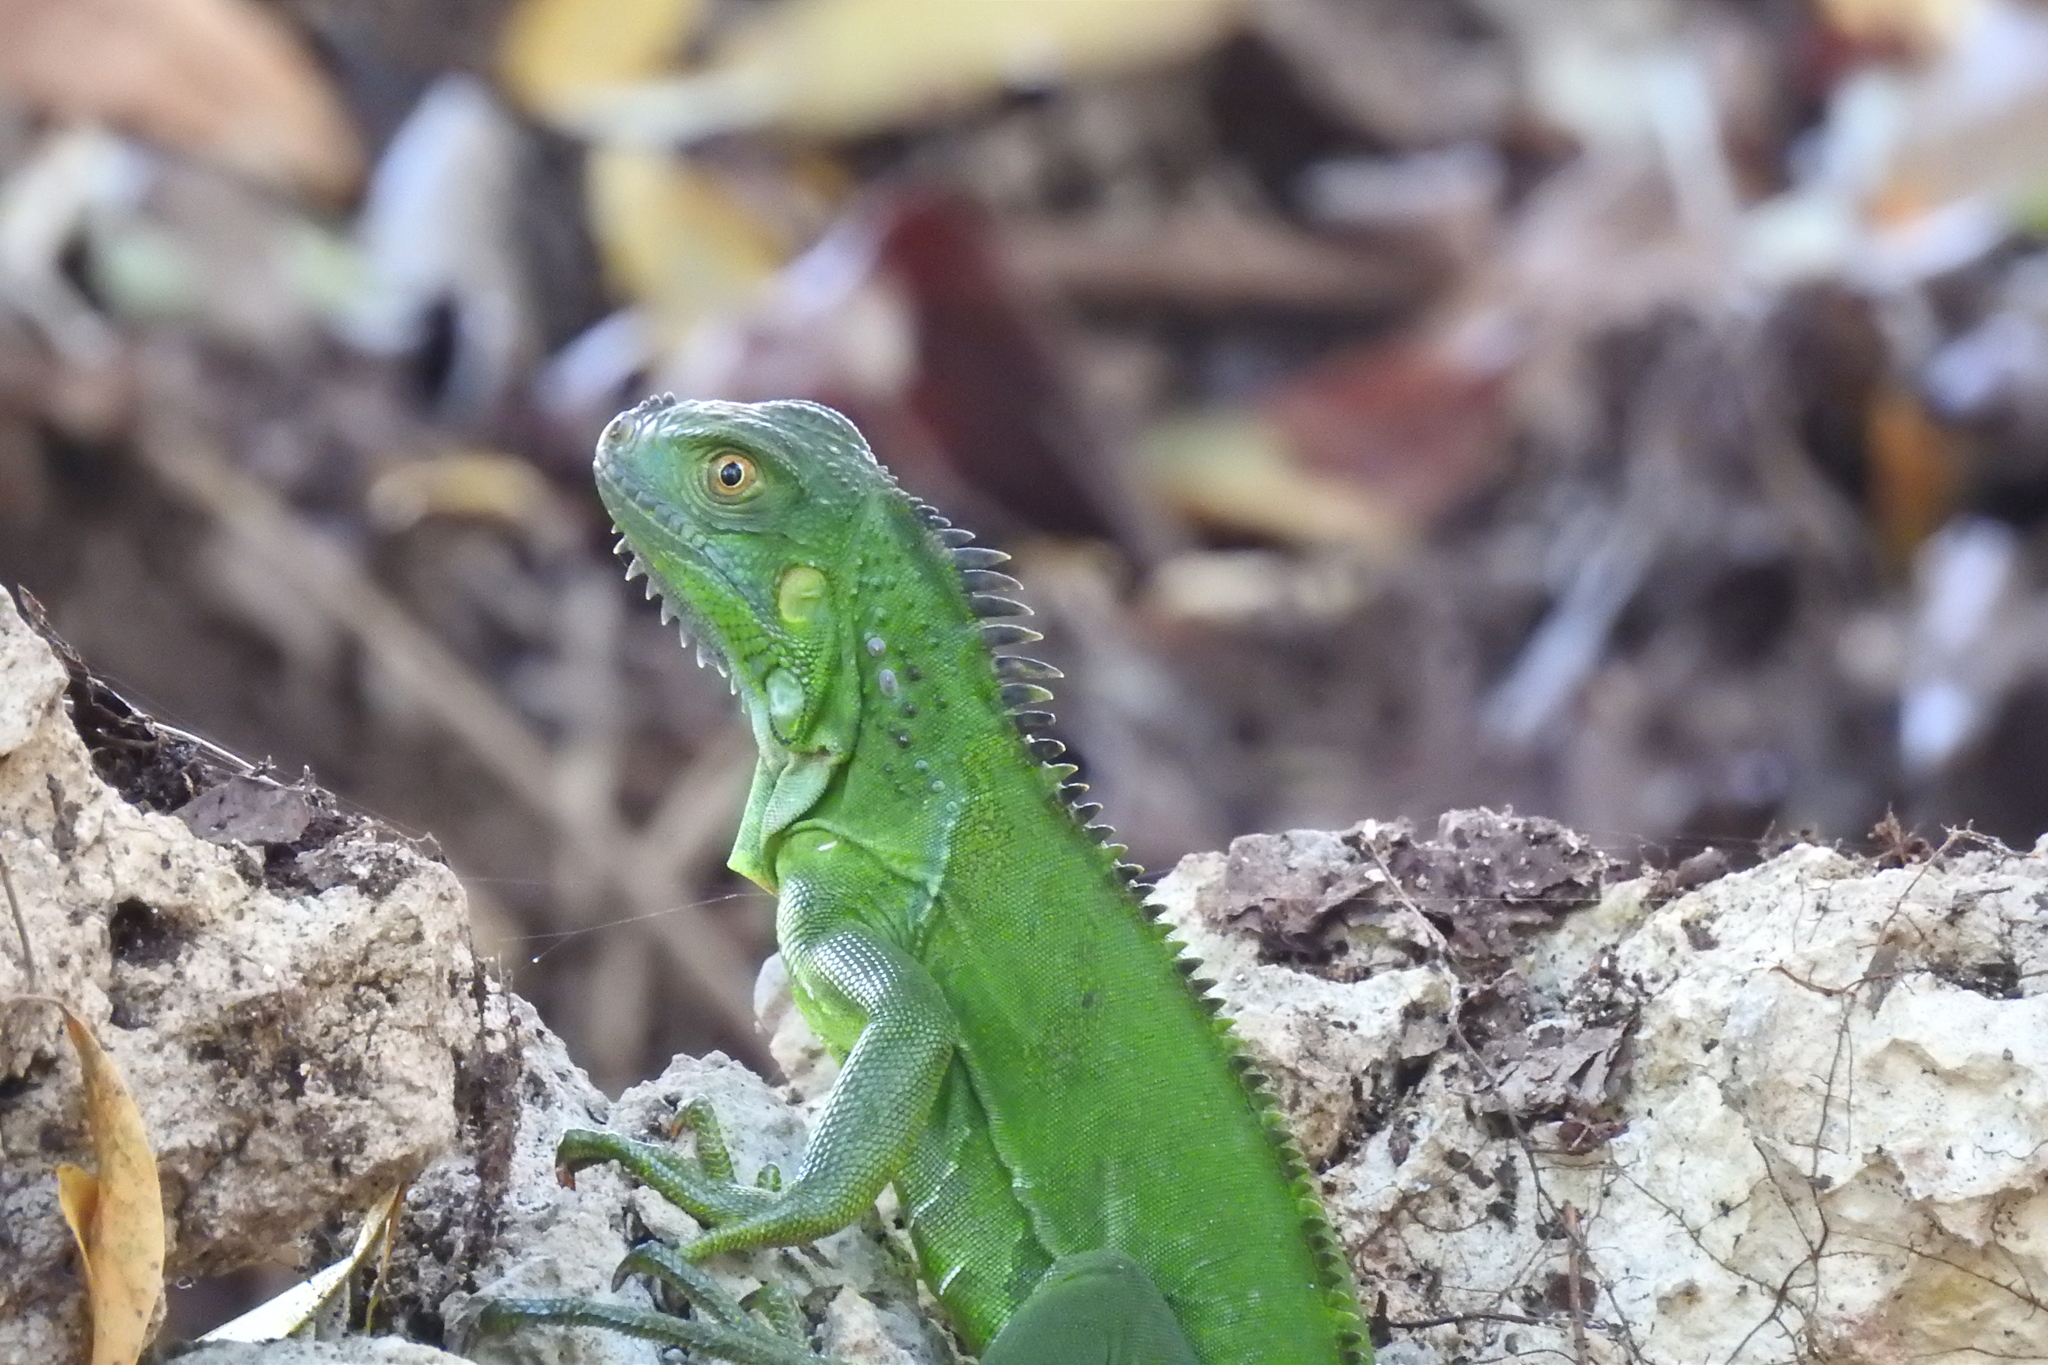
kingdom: Animalia
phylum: Chordata
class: Squamata
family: Iguanidae
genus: Iguana
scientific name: Iguana iguana
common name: Green iguana
